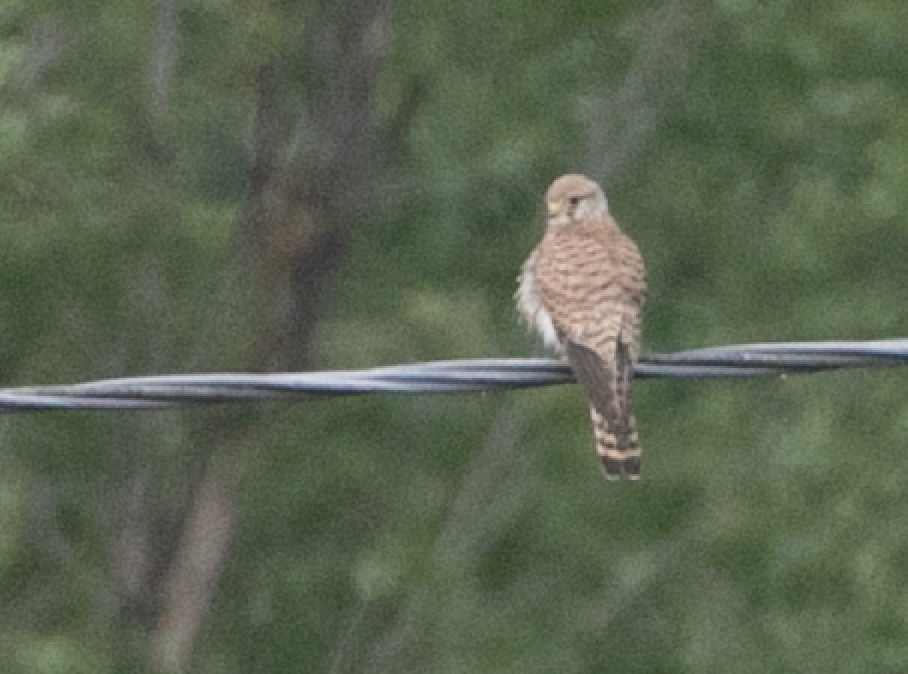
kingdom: Animalia
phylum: Chordata
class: Aves
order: Falconiformes
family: Falconidae
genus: Falco
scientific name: Falco tinnunculus
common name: Common kestrel
